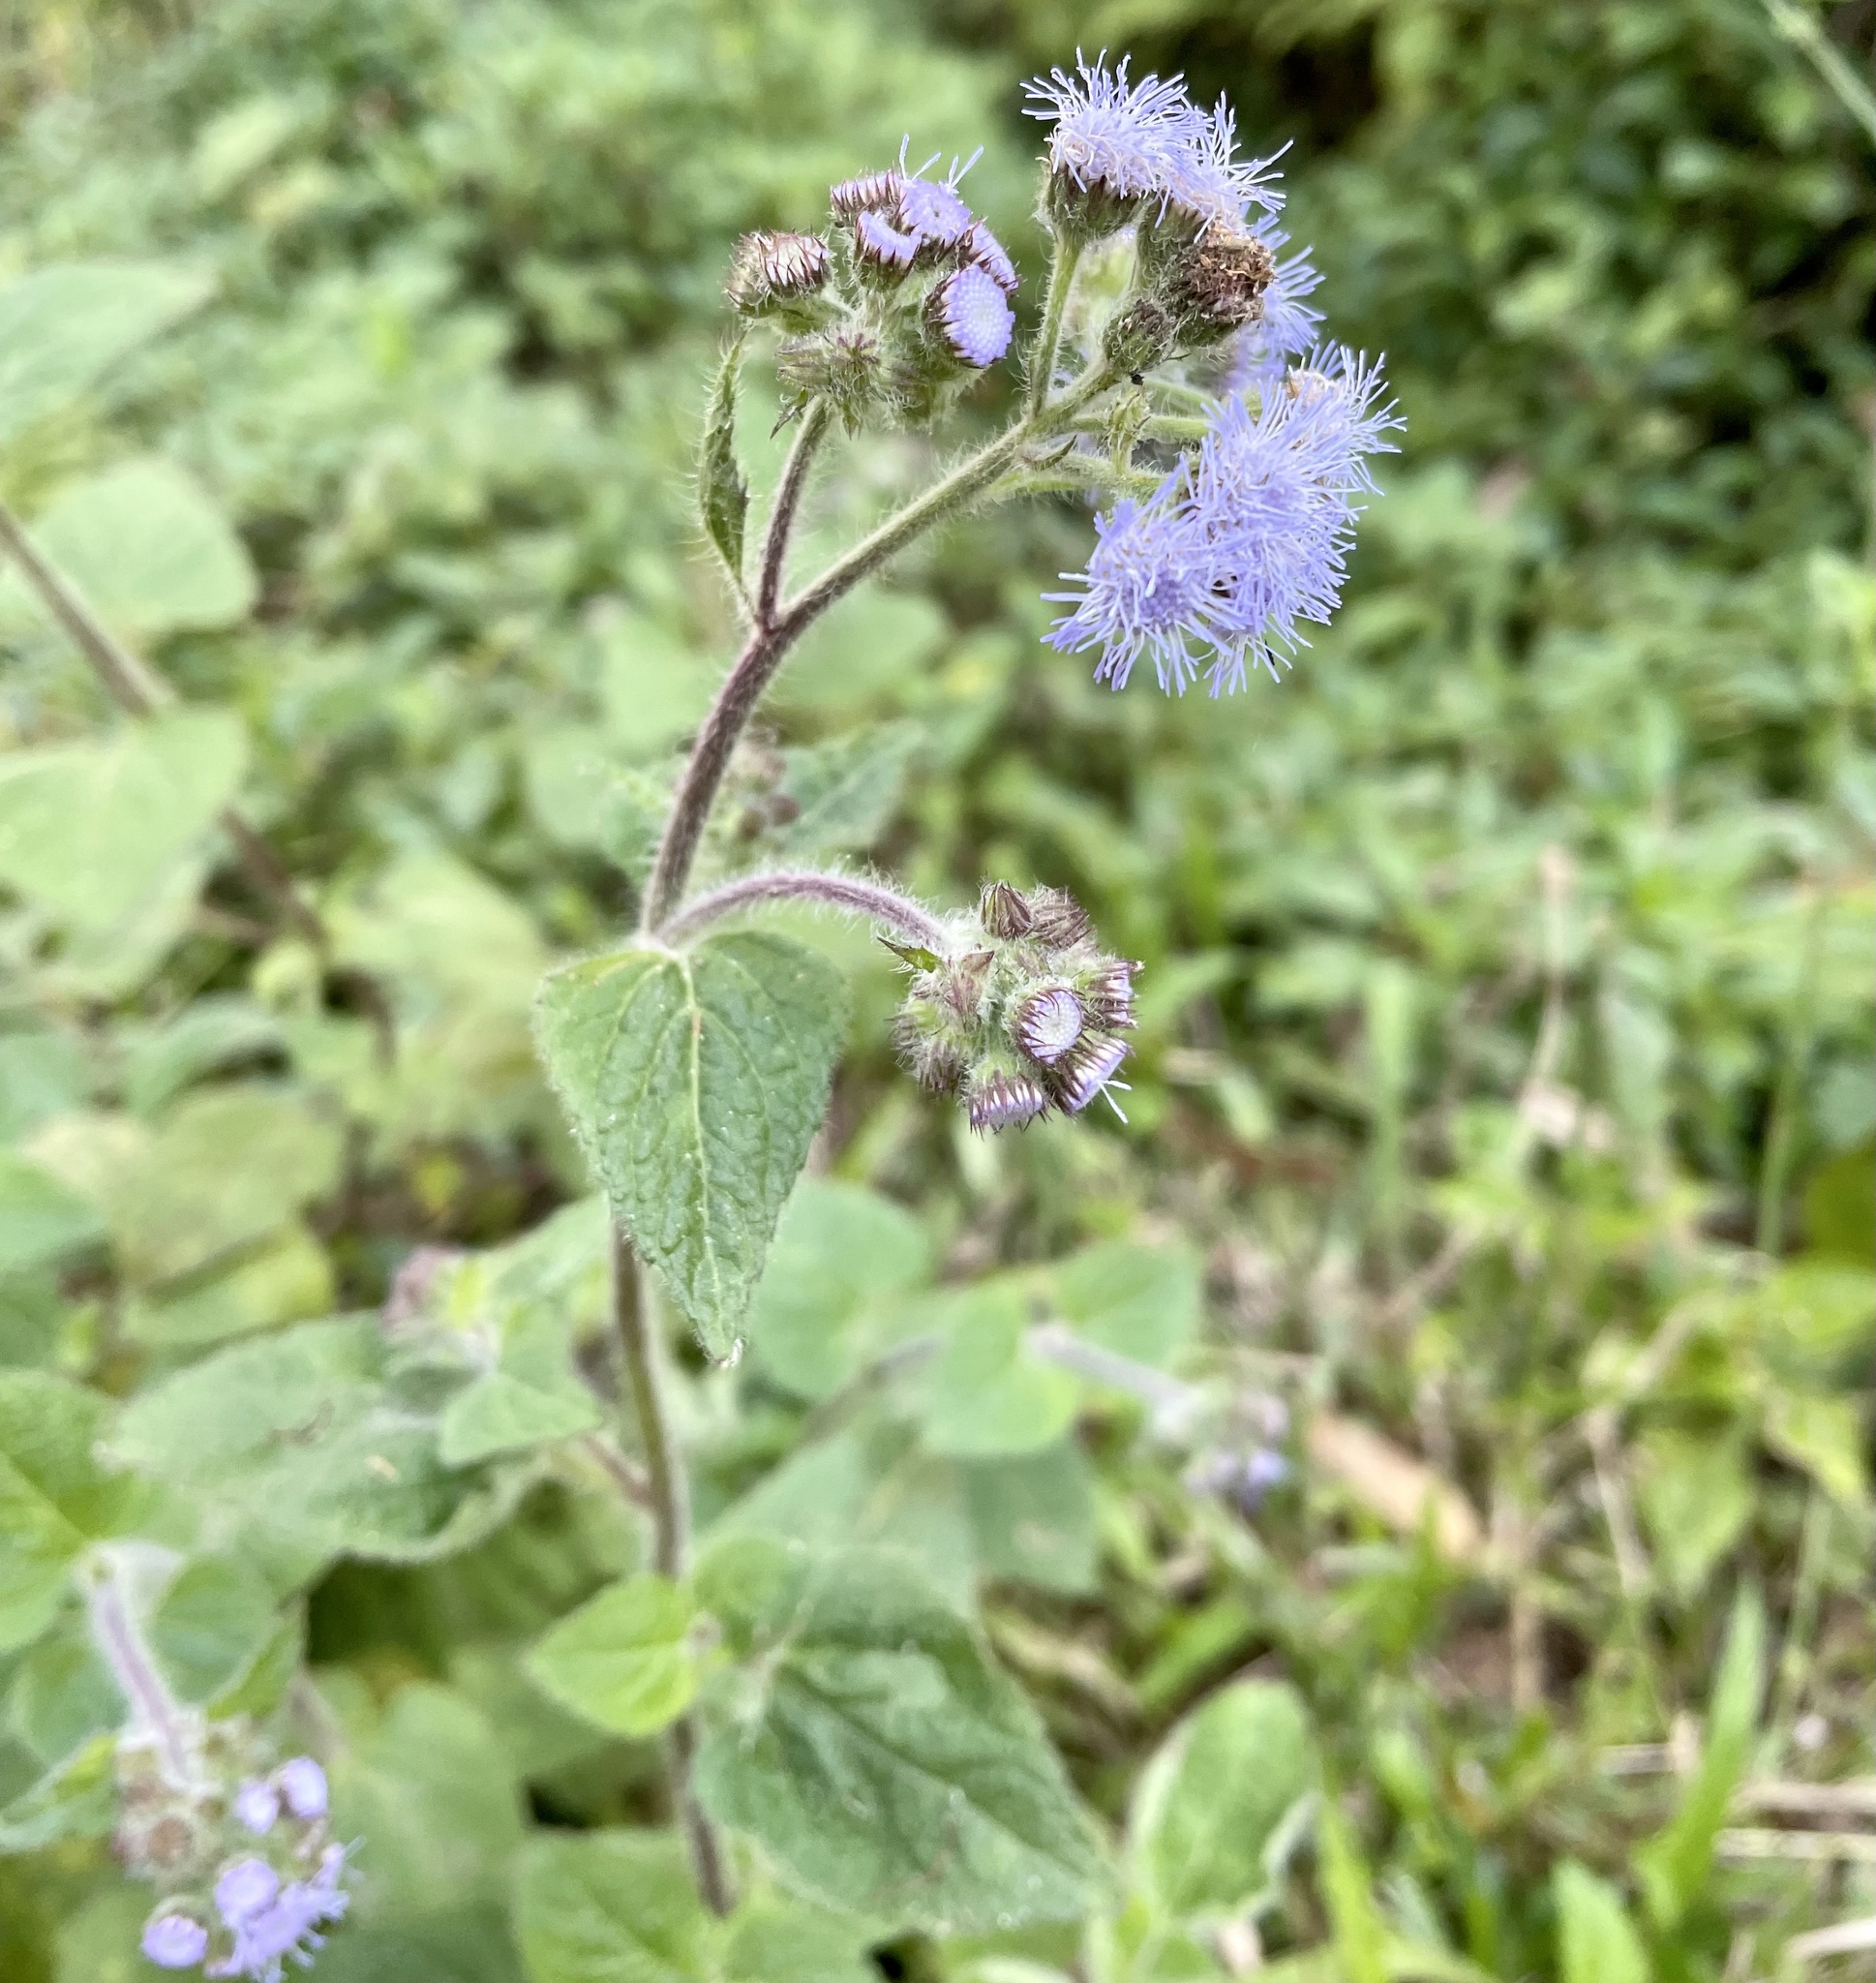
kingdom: Plantae
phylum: Tracheophyta
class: Magnoliopsida
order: Asterales
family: Asteraceae
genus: Ageratum
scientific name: Ageratum houstonianum
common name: Bluemink
